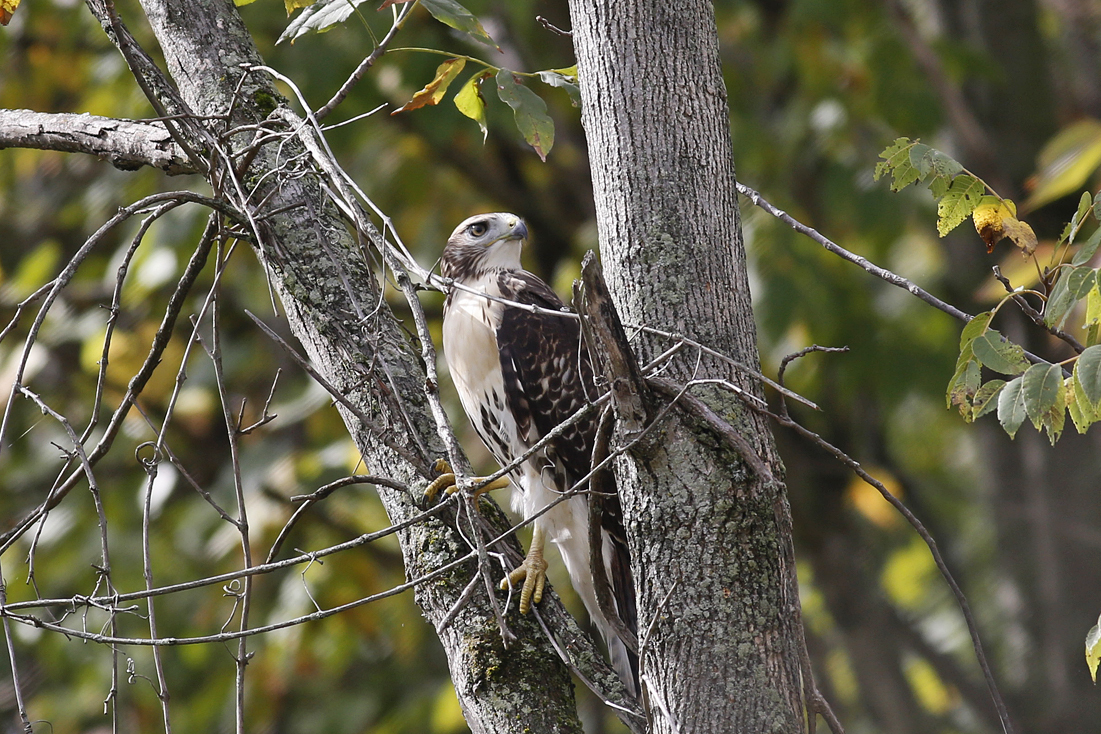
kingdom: Animalia
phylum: Chordata
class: Aves
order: Accipitriformes
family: Accipitridae
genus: Buteo
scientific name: Buteo jamaicensis
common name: Red-tailed hawk
